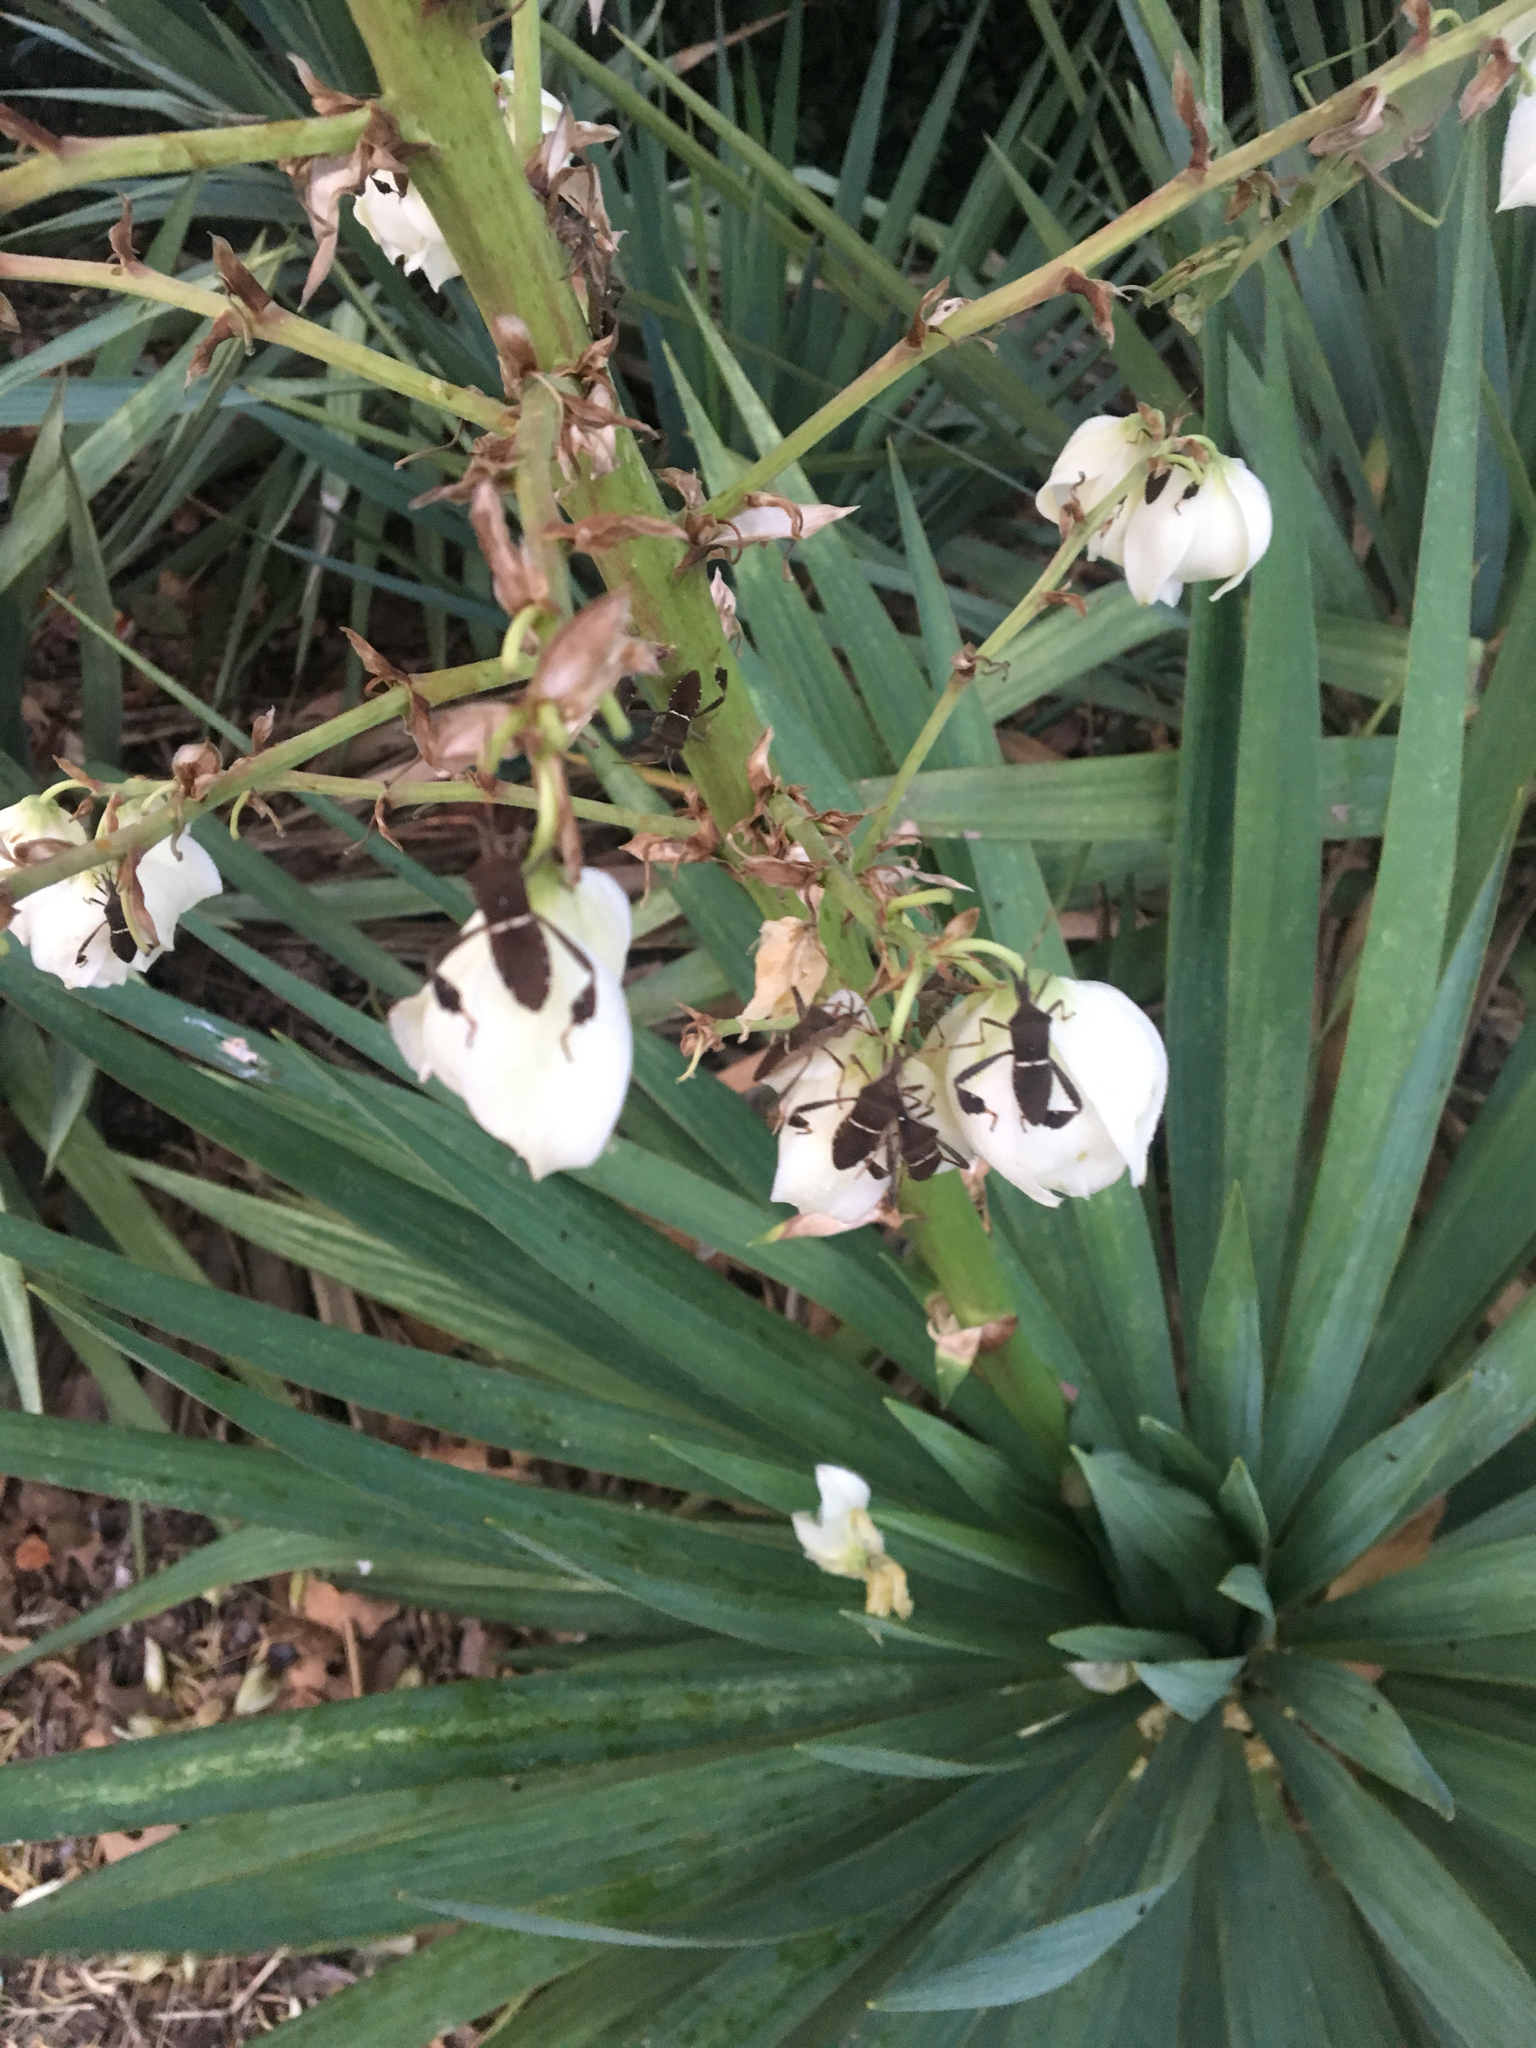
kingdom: Animalia
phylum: Arthropoda
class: Insecta
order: Hemiptera
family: Coreidae
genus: Leptoglossus
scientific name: Leptoglossus phyllopus
